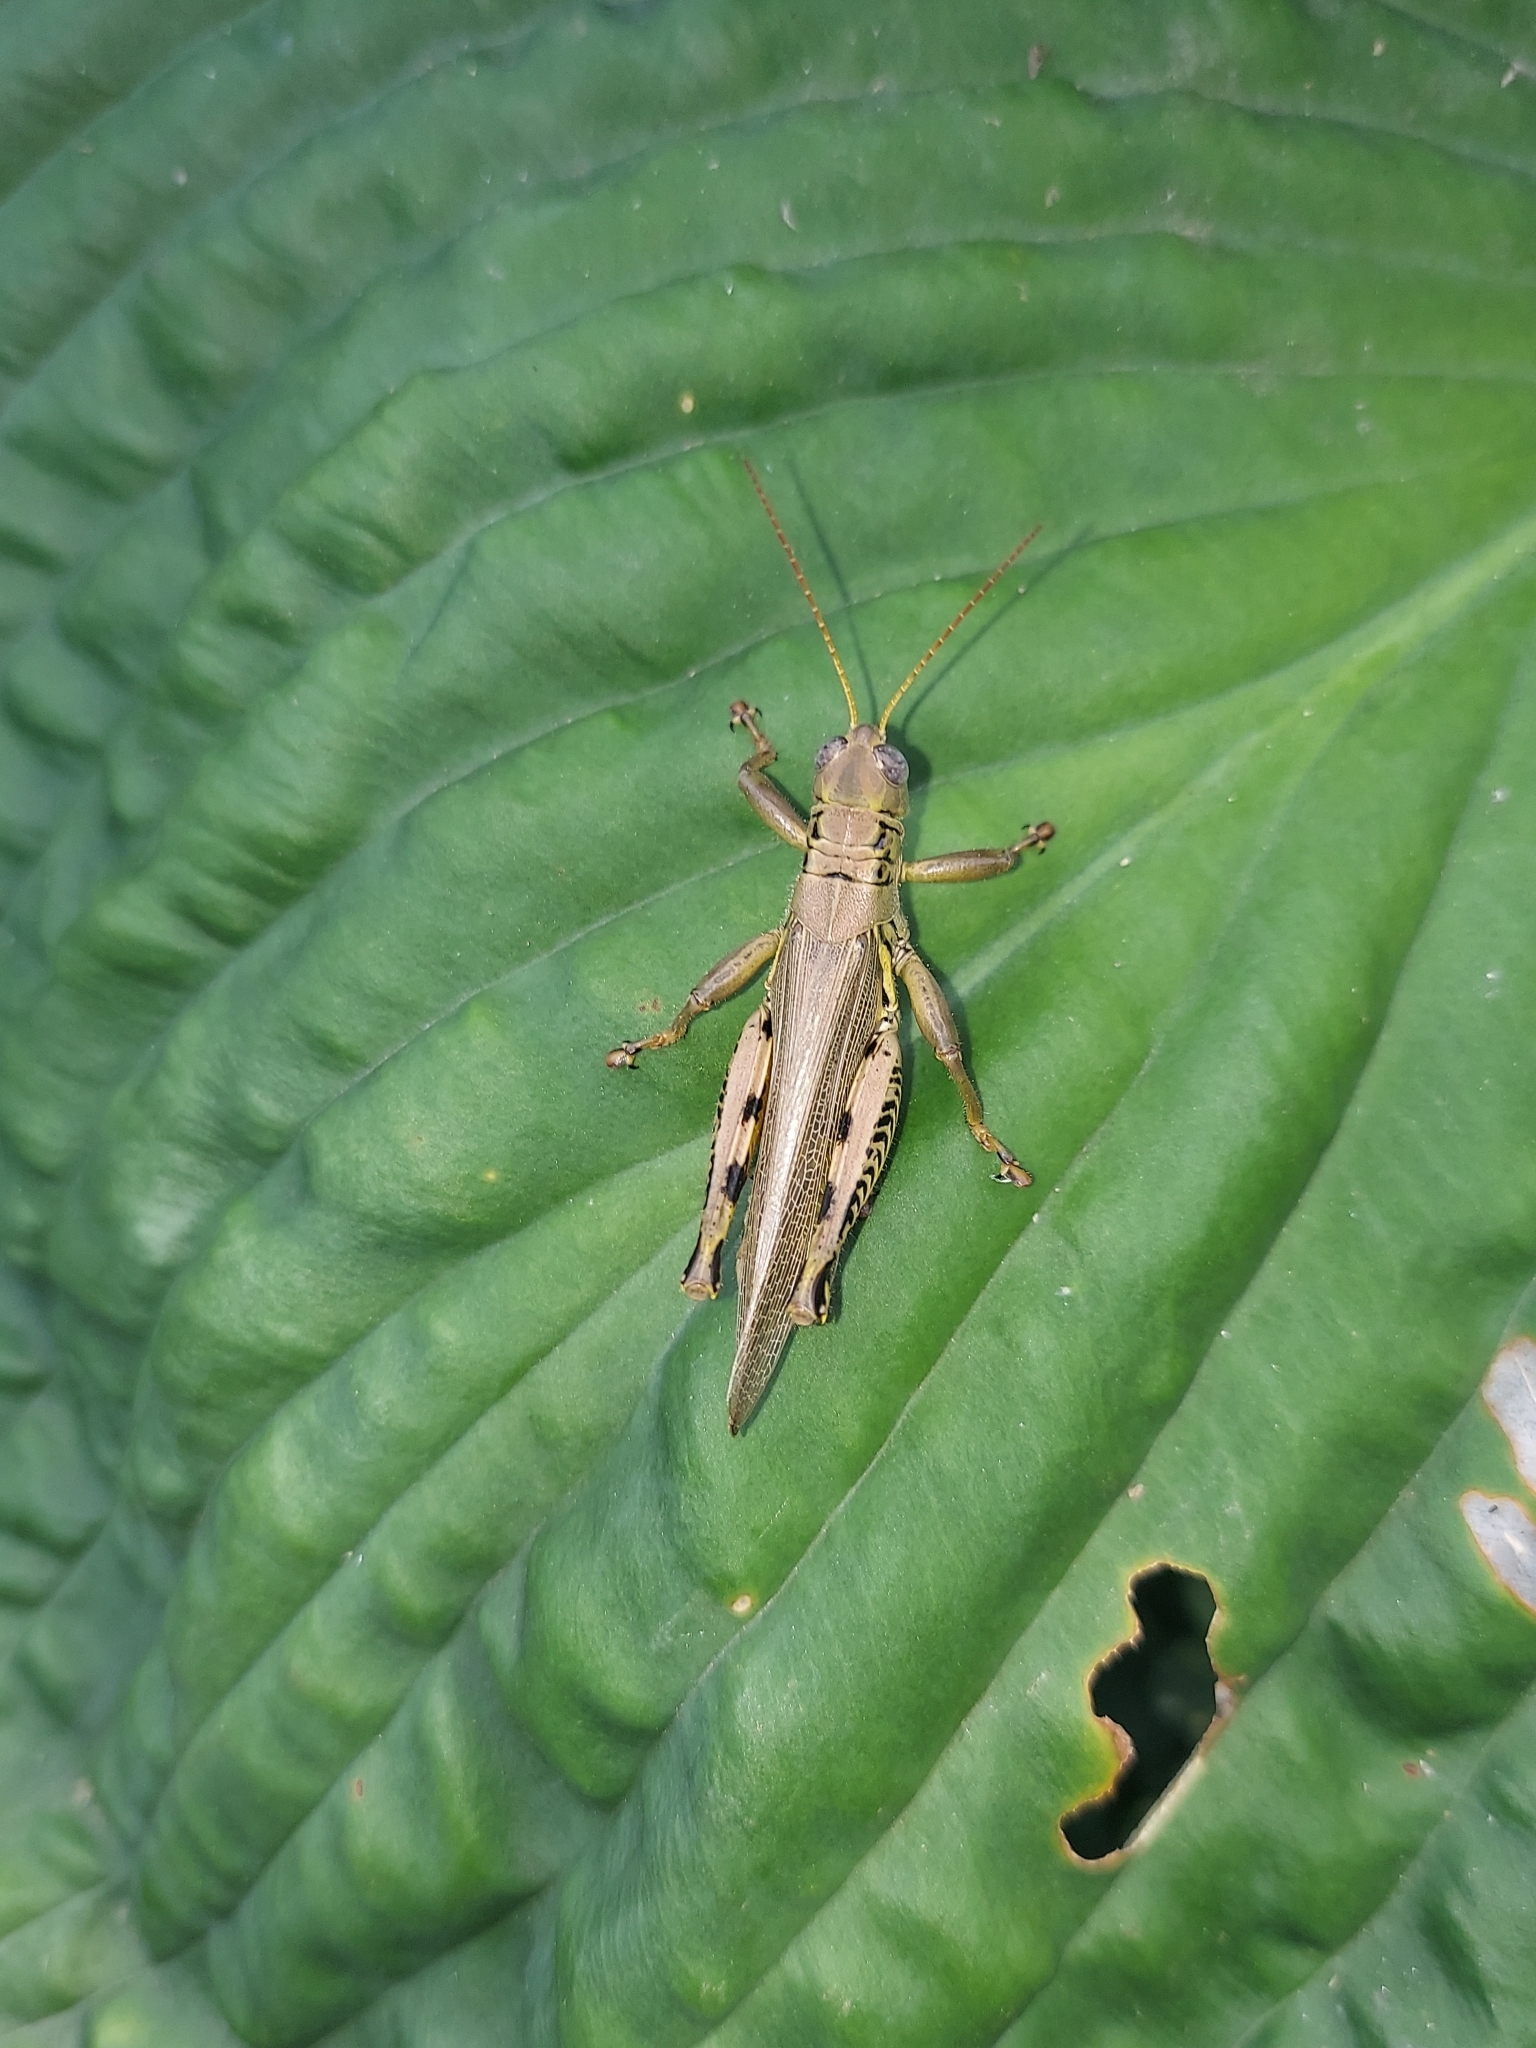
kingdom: Animalia
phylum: Arthropoda
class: Insecta
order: Orthoptera
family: Acrididae
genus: Melanoplus
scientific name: Melanoplus differentialis
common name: Differential grasshopper
